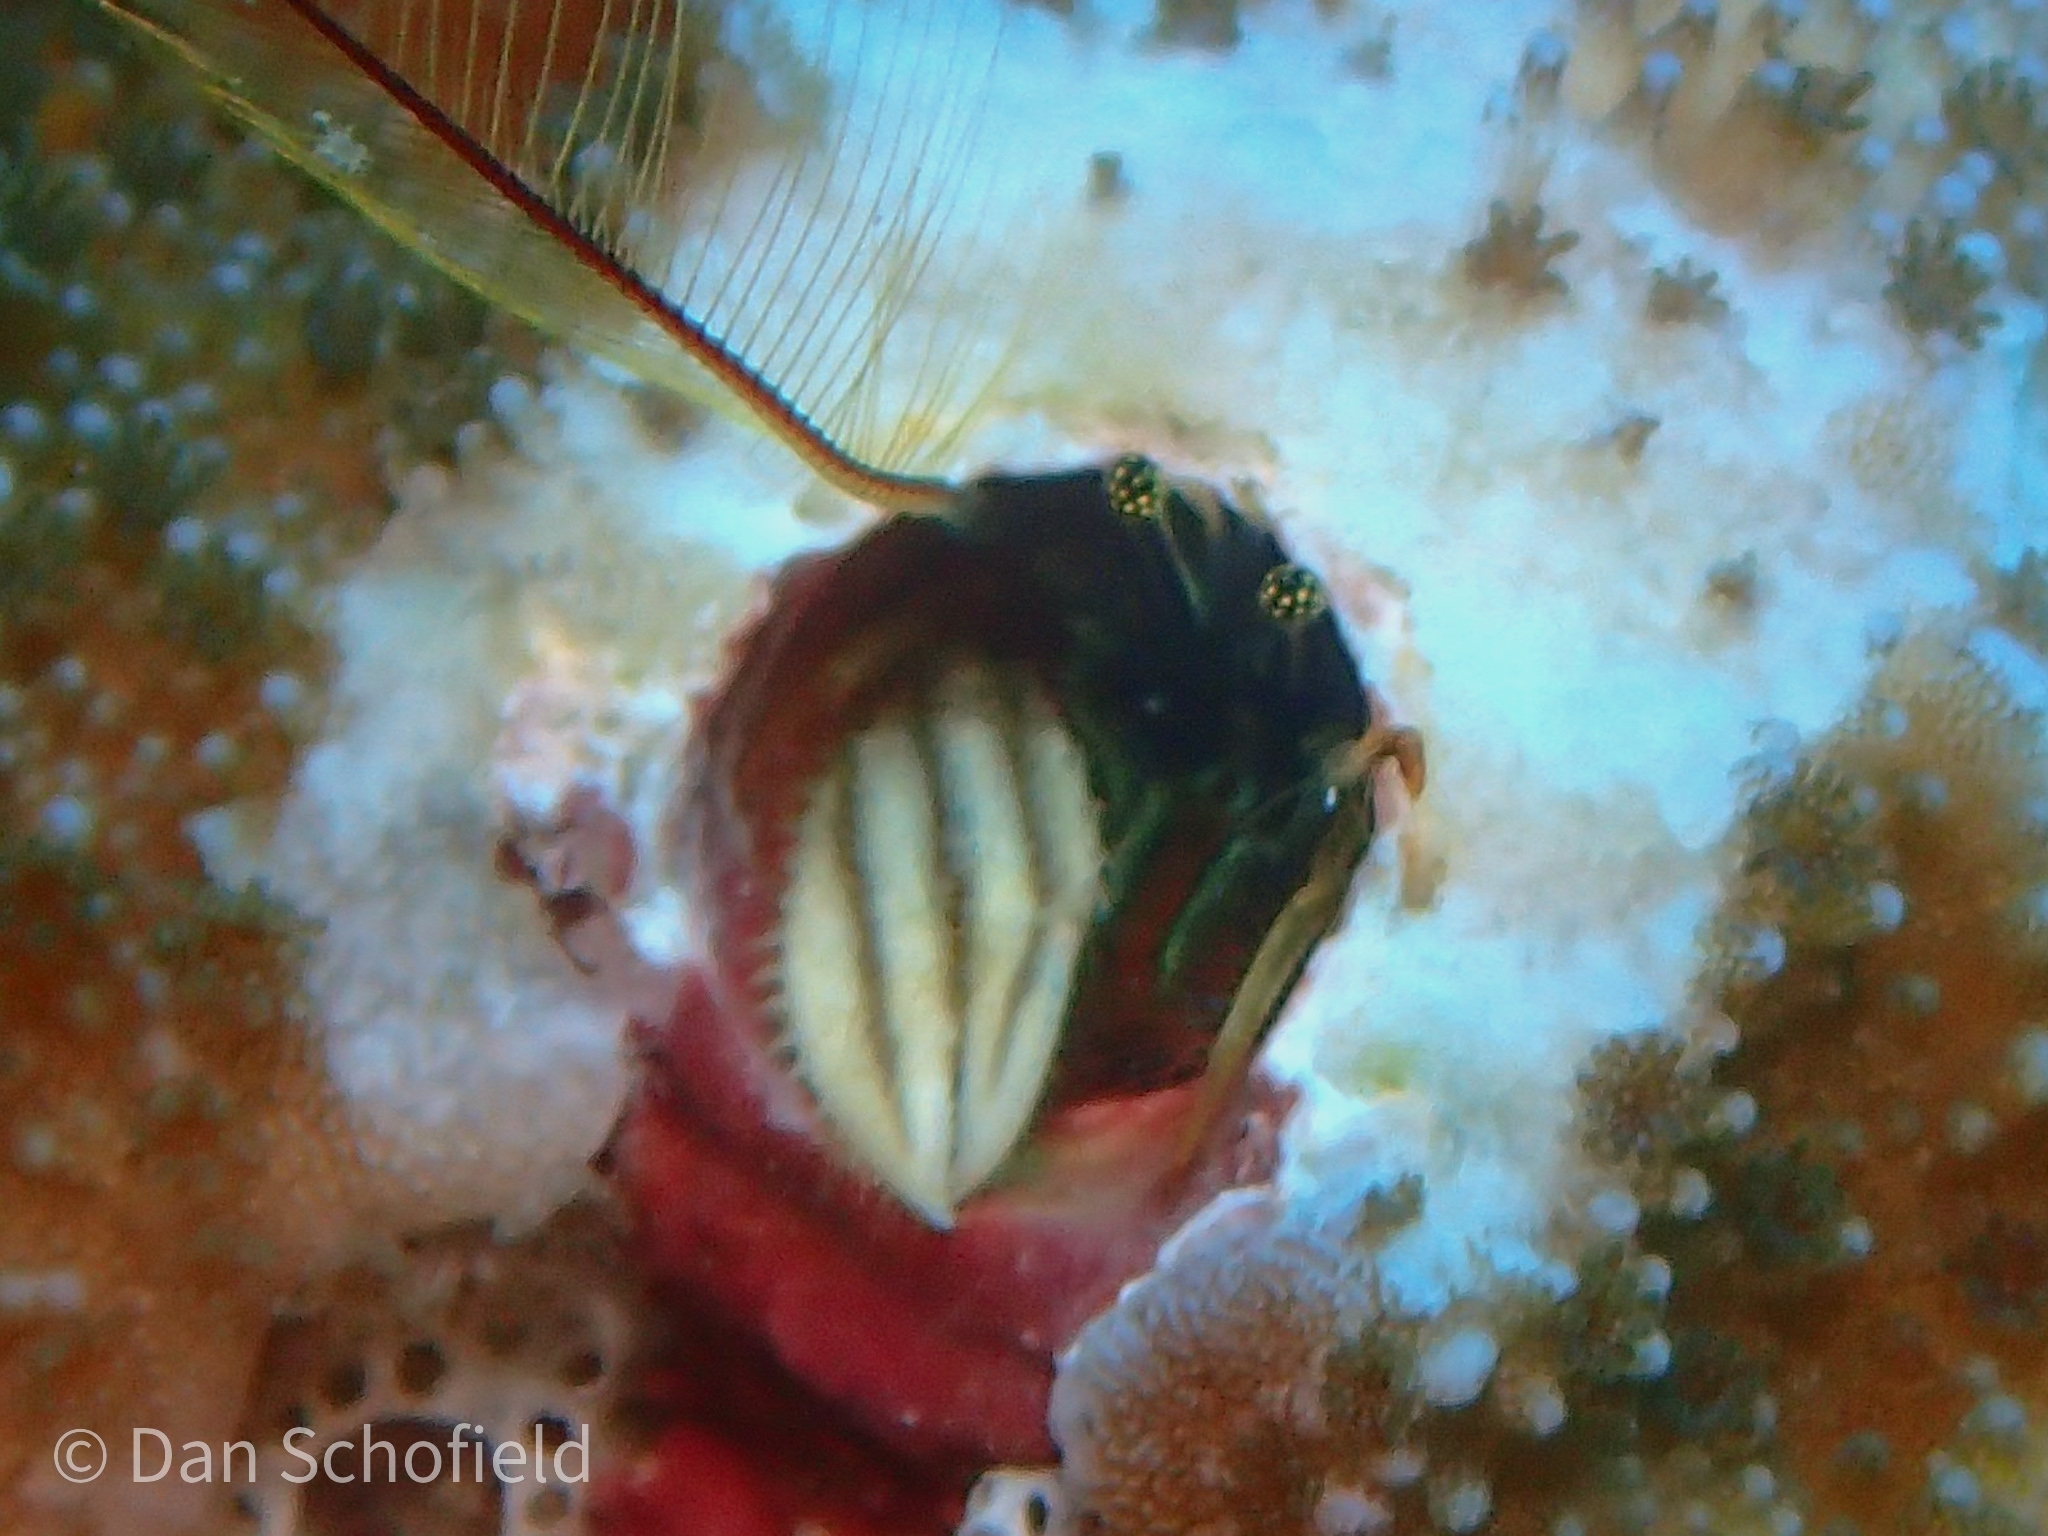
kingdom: Animalia
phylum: Arthropoda
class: Malacostraca
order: Decapoda
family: Paguridae
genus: Paguritta
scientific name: Paguritta vittata
